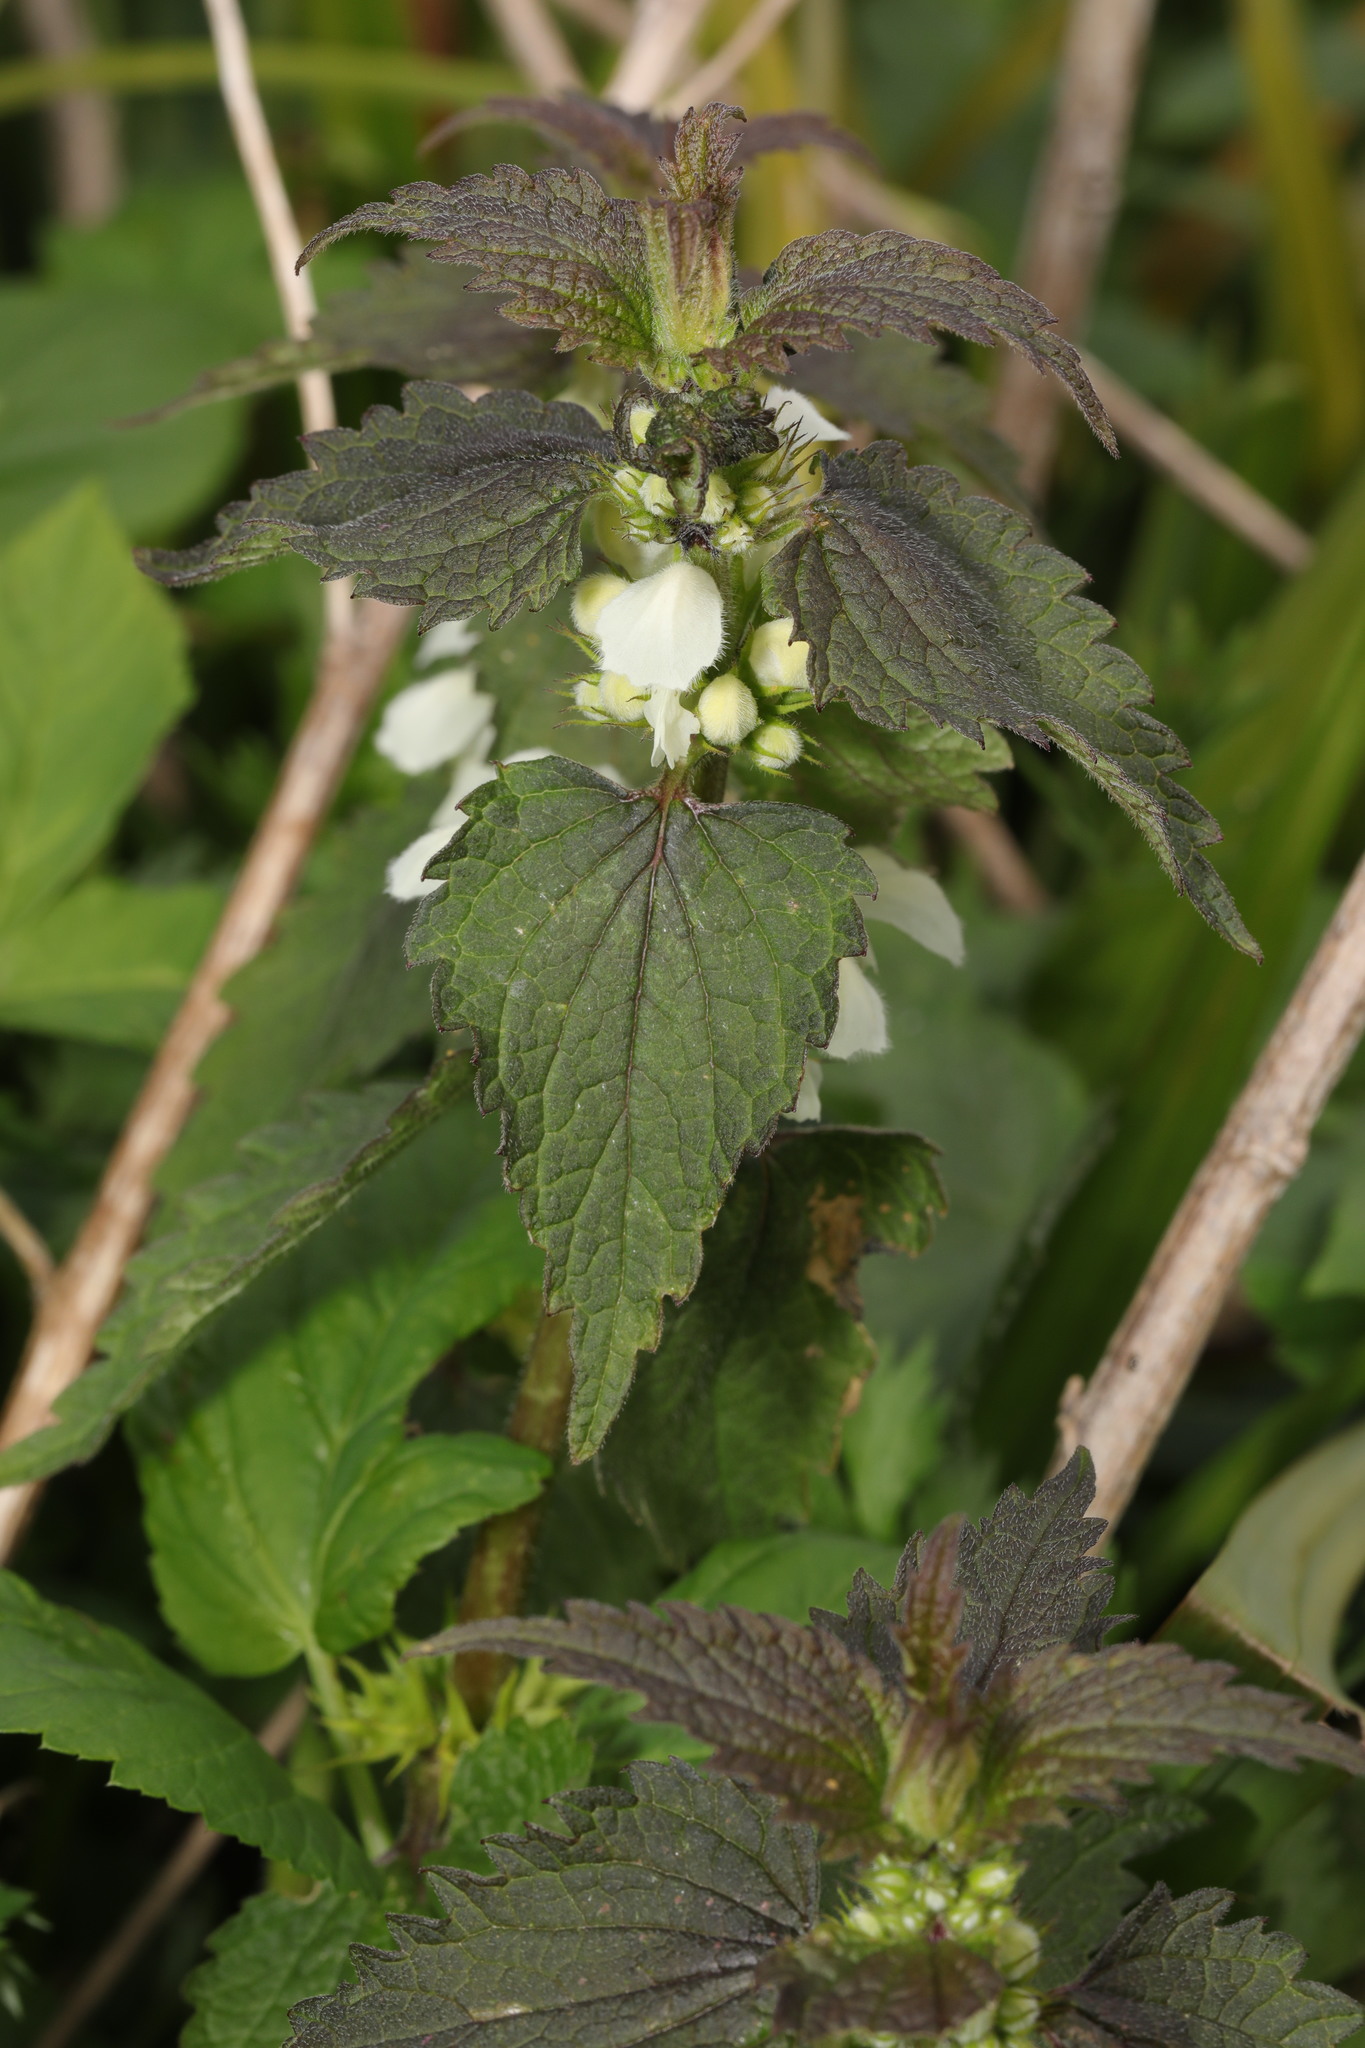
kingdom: Plantae
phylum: Tracheophyta
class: Magnoliopsida
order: Lamiales
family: Lamiaceae
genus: Lamium
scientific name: Lamium album
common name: White dead-nettle
